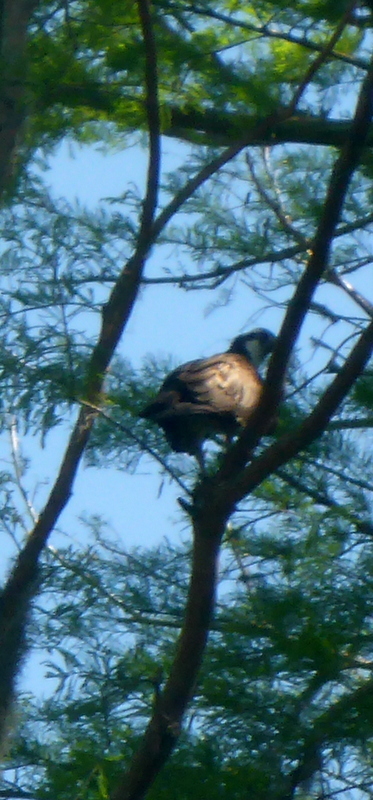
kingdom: Animalia
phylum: Chordata
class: Aves
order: Accipitriformes
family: Pandionidae
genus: Pandion
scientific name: Pandion haliaetus
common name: Osprey
